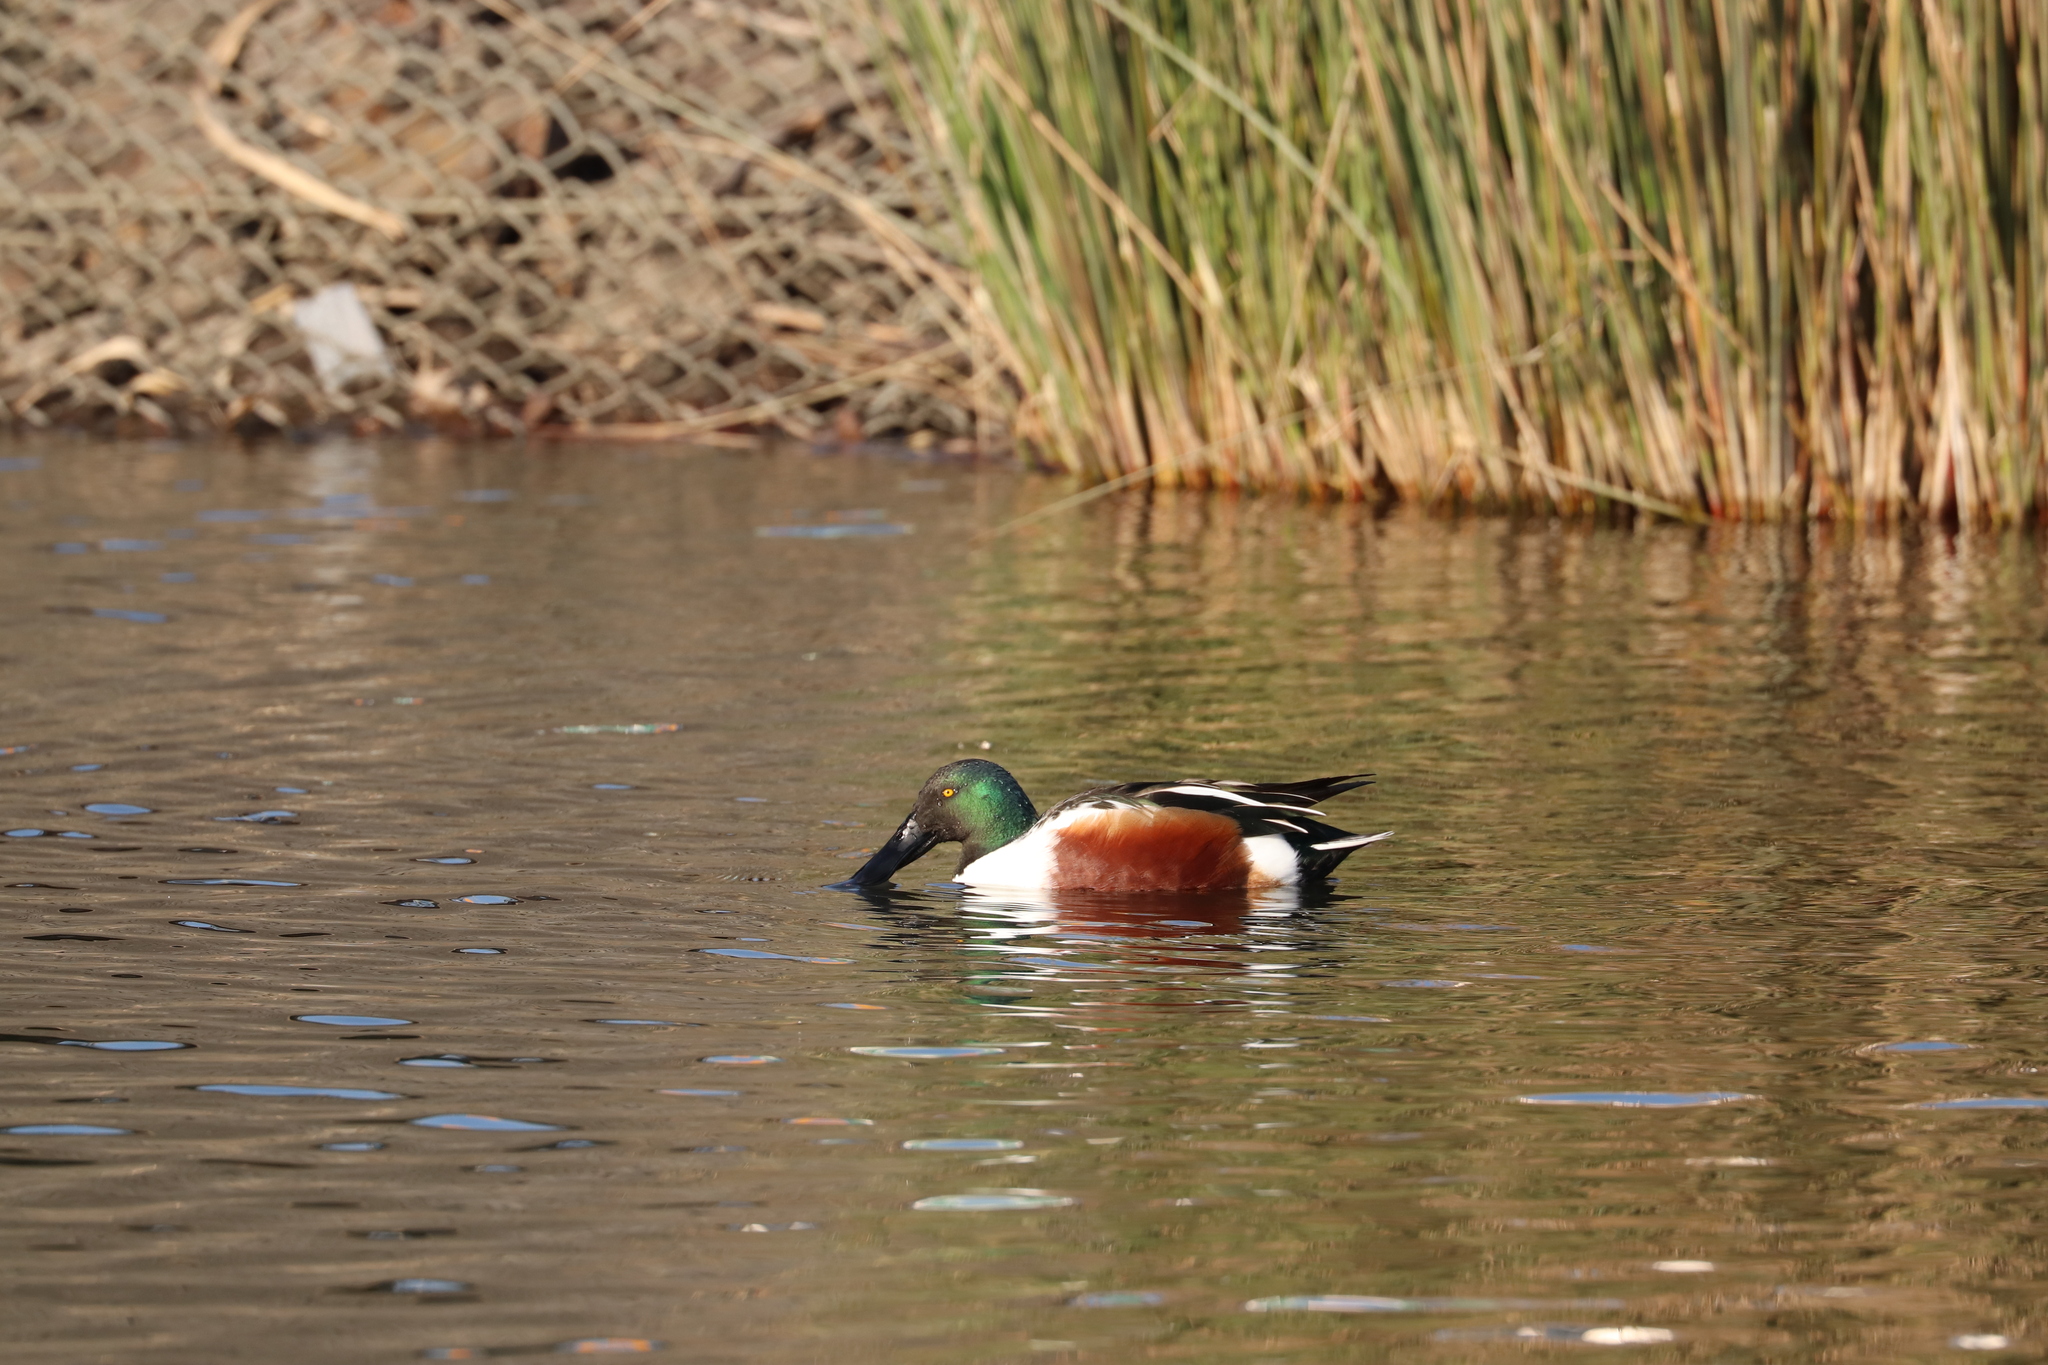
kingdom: Animalia
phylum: Chordata
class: Aves
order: Anseriformes
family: Anatidae
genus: Spatula
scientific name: Spatula clypeata
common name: Northern shoveler
